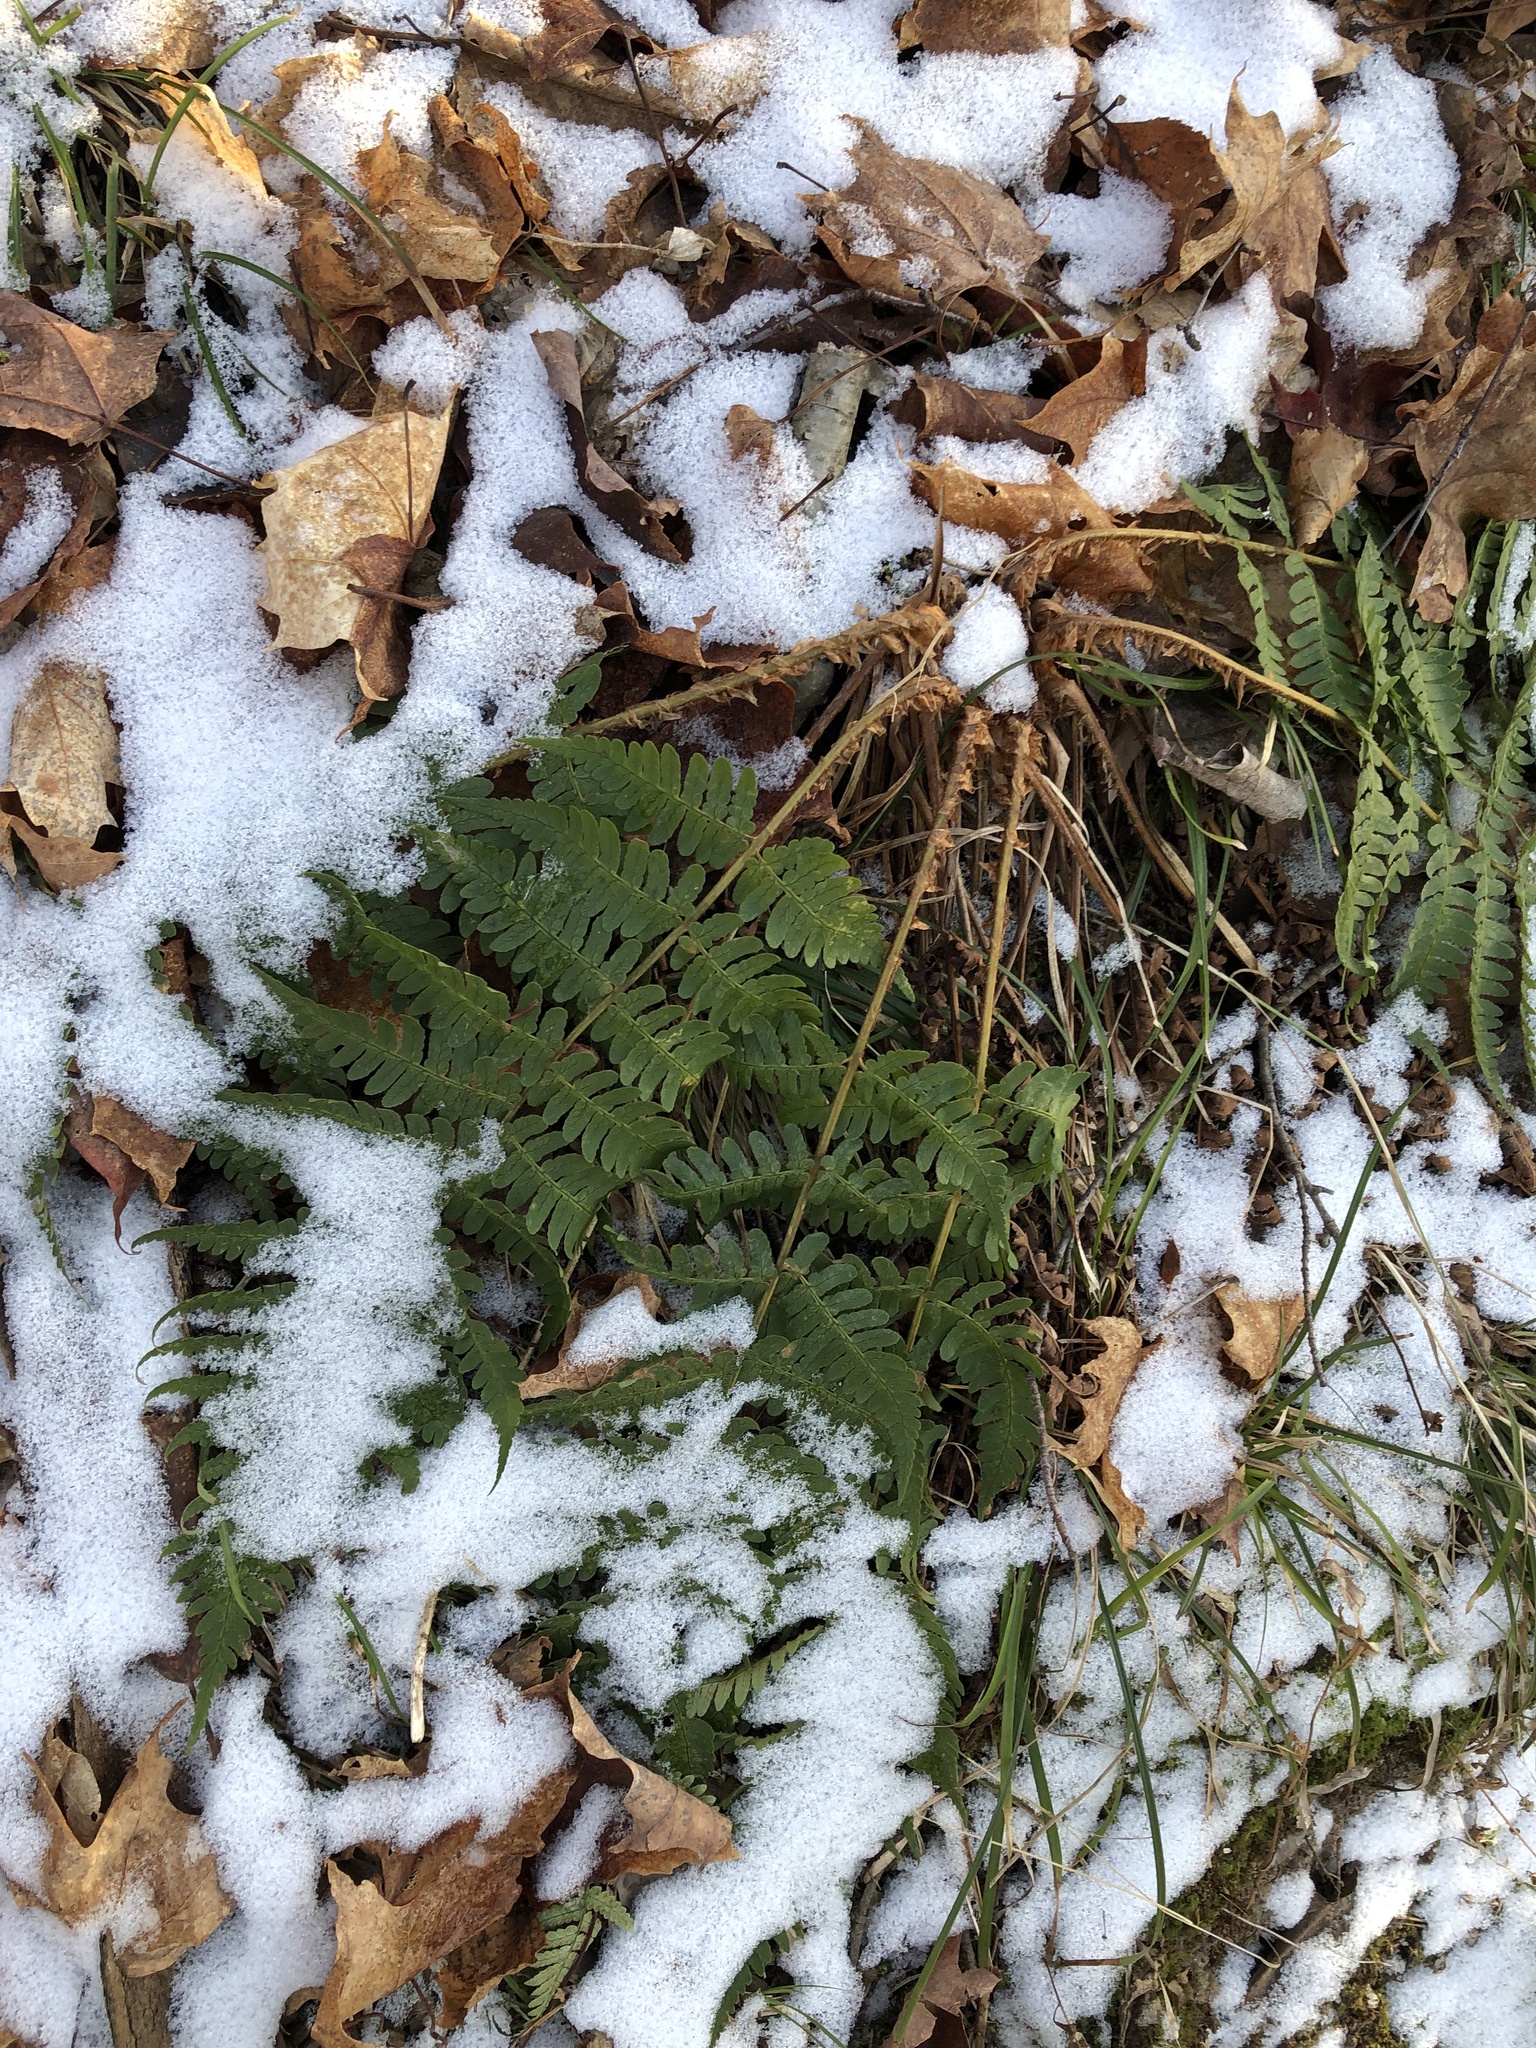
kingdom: Plantae
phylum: Tracheophyta
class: Polypodiopsida
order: Polypodiales
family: Dryopteridaceae
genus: Dryopteris
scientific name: Dryopteris marginalis
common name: Marginal wood fern
